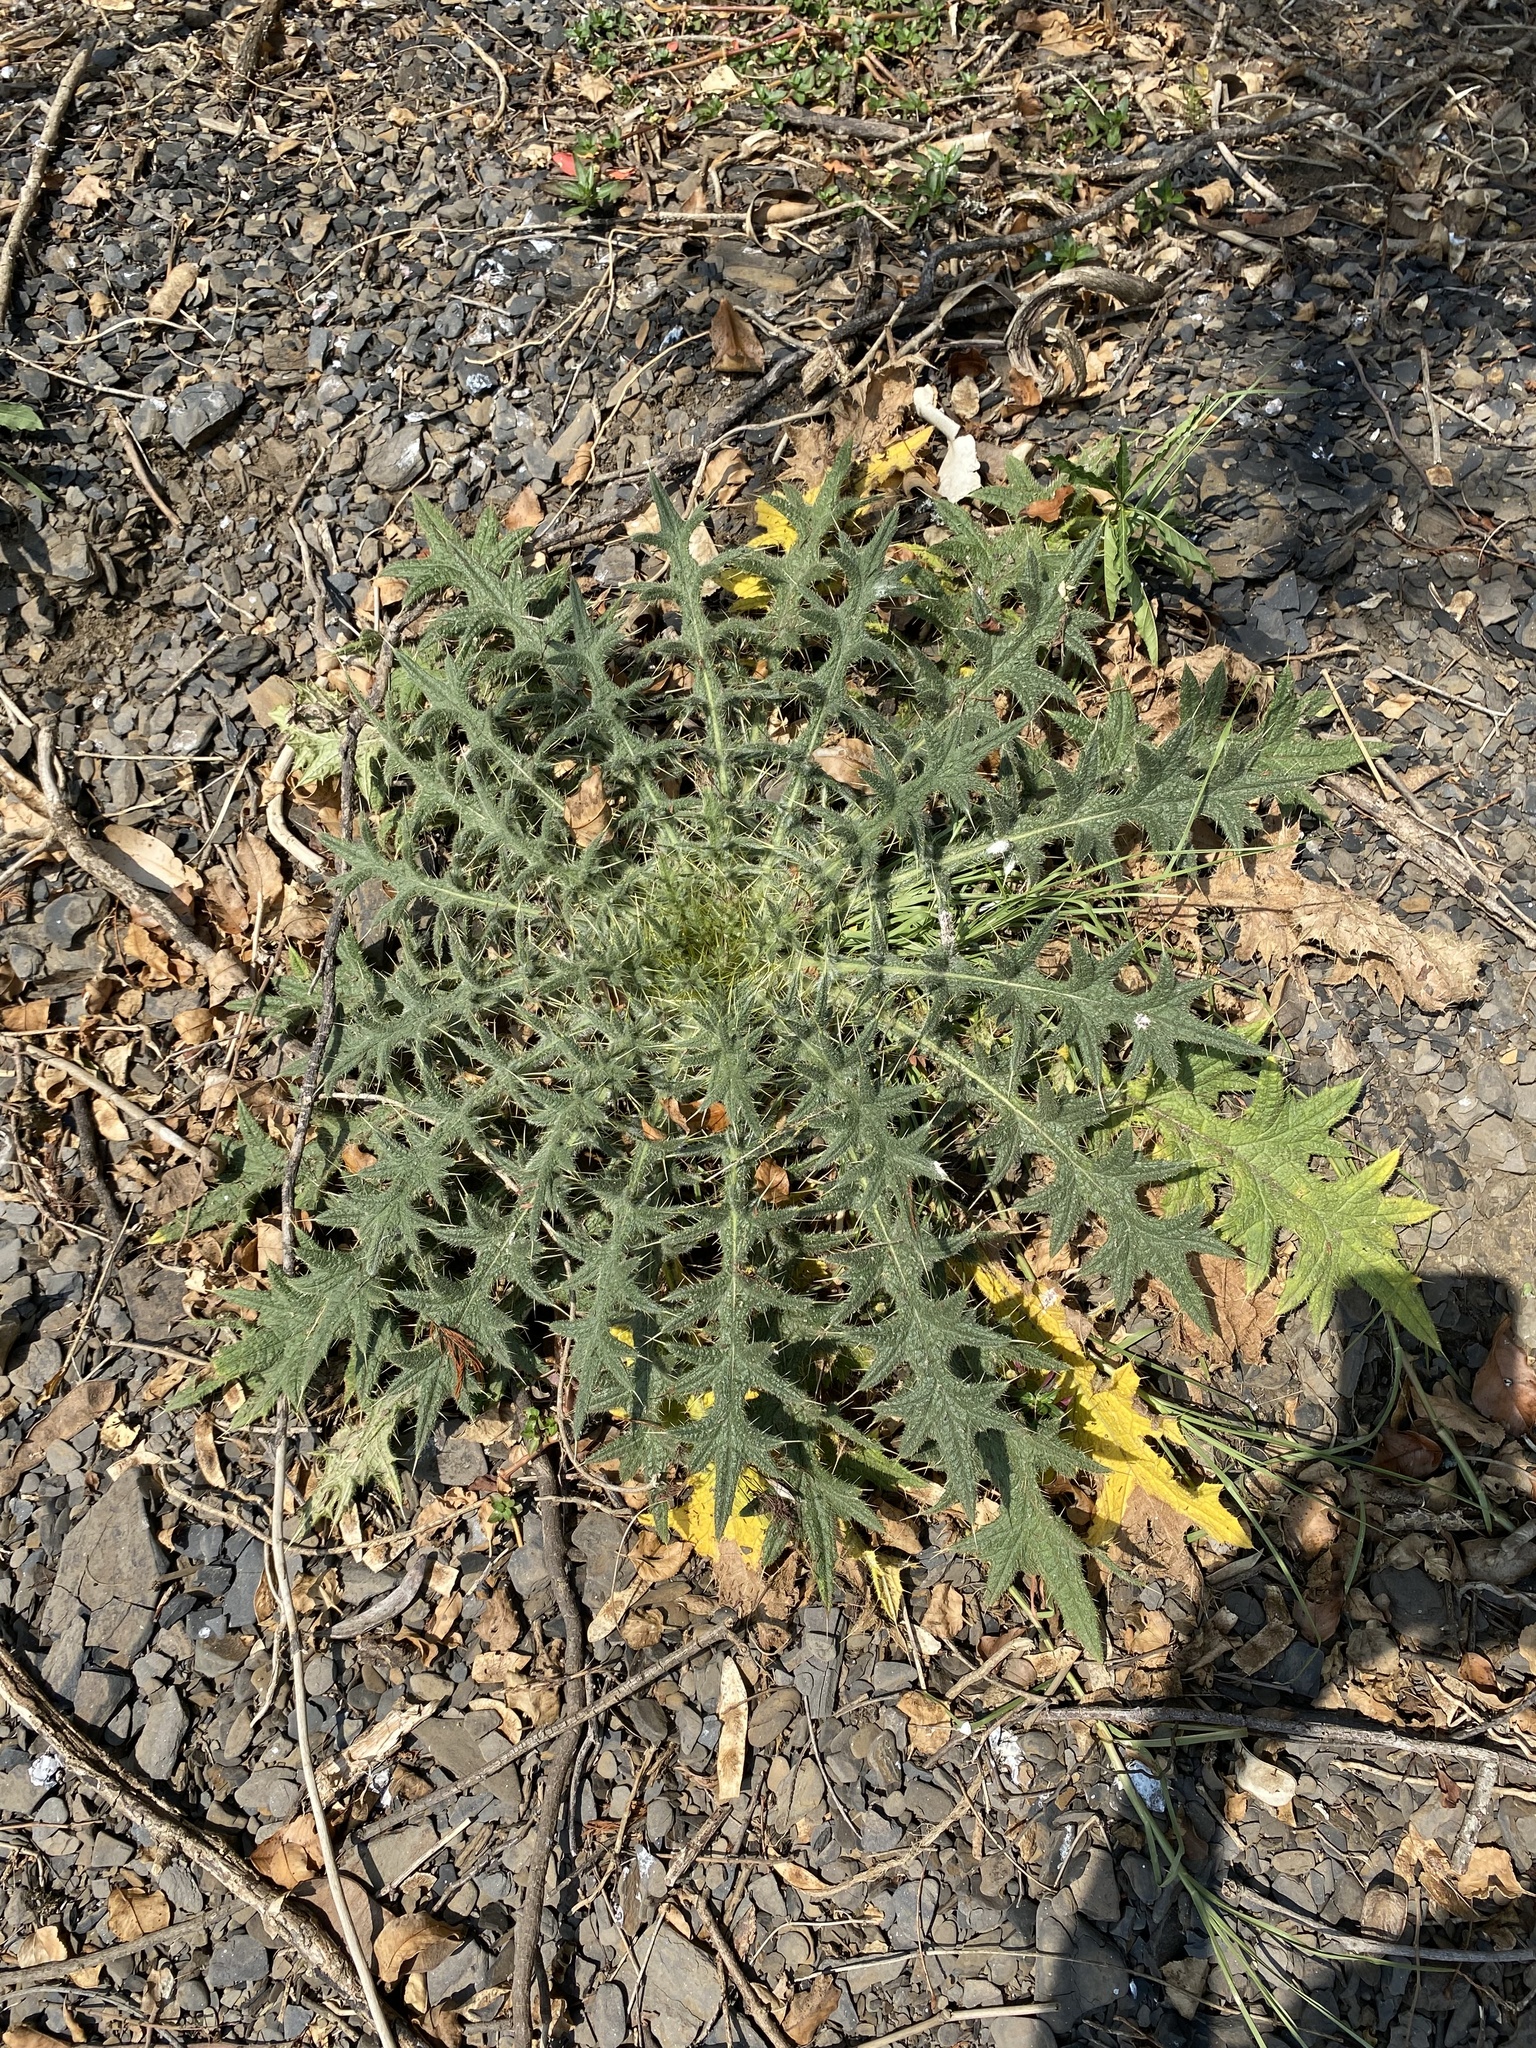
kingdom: Plantae
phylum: Tracheophyta
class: Magnoliopsida
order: Asterales
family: Asteraceae
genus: Cirsium
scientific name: Cirsium vulgare
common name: Bull thistle
